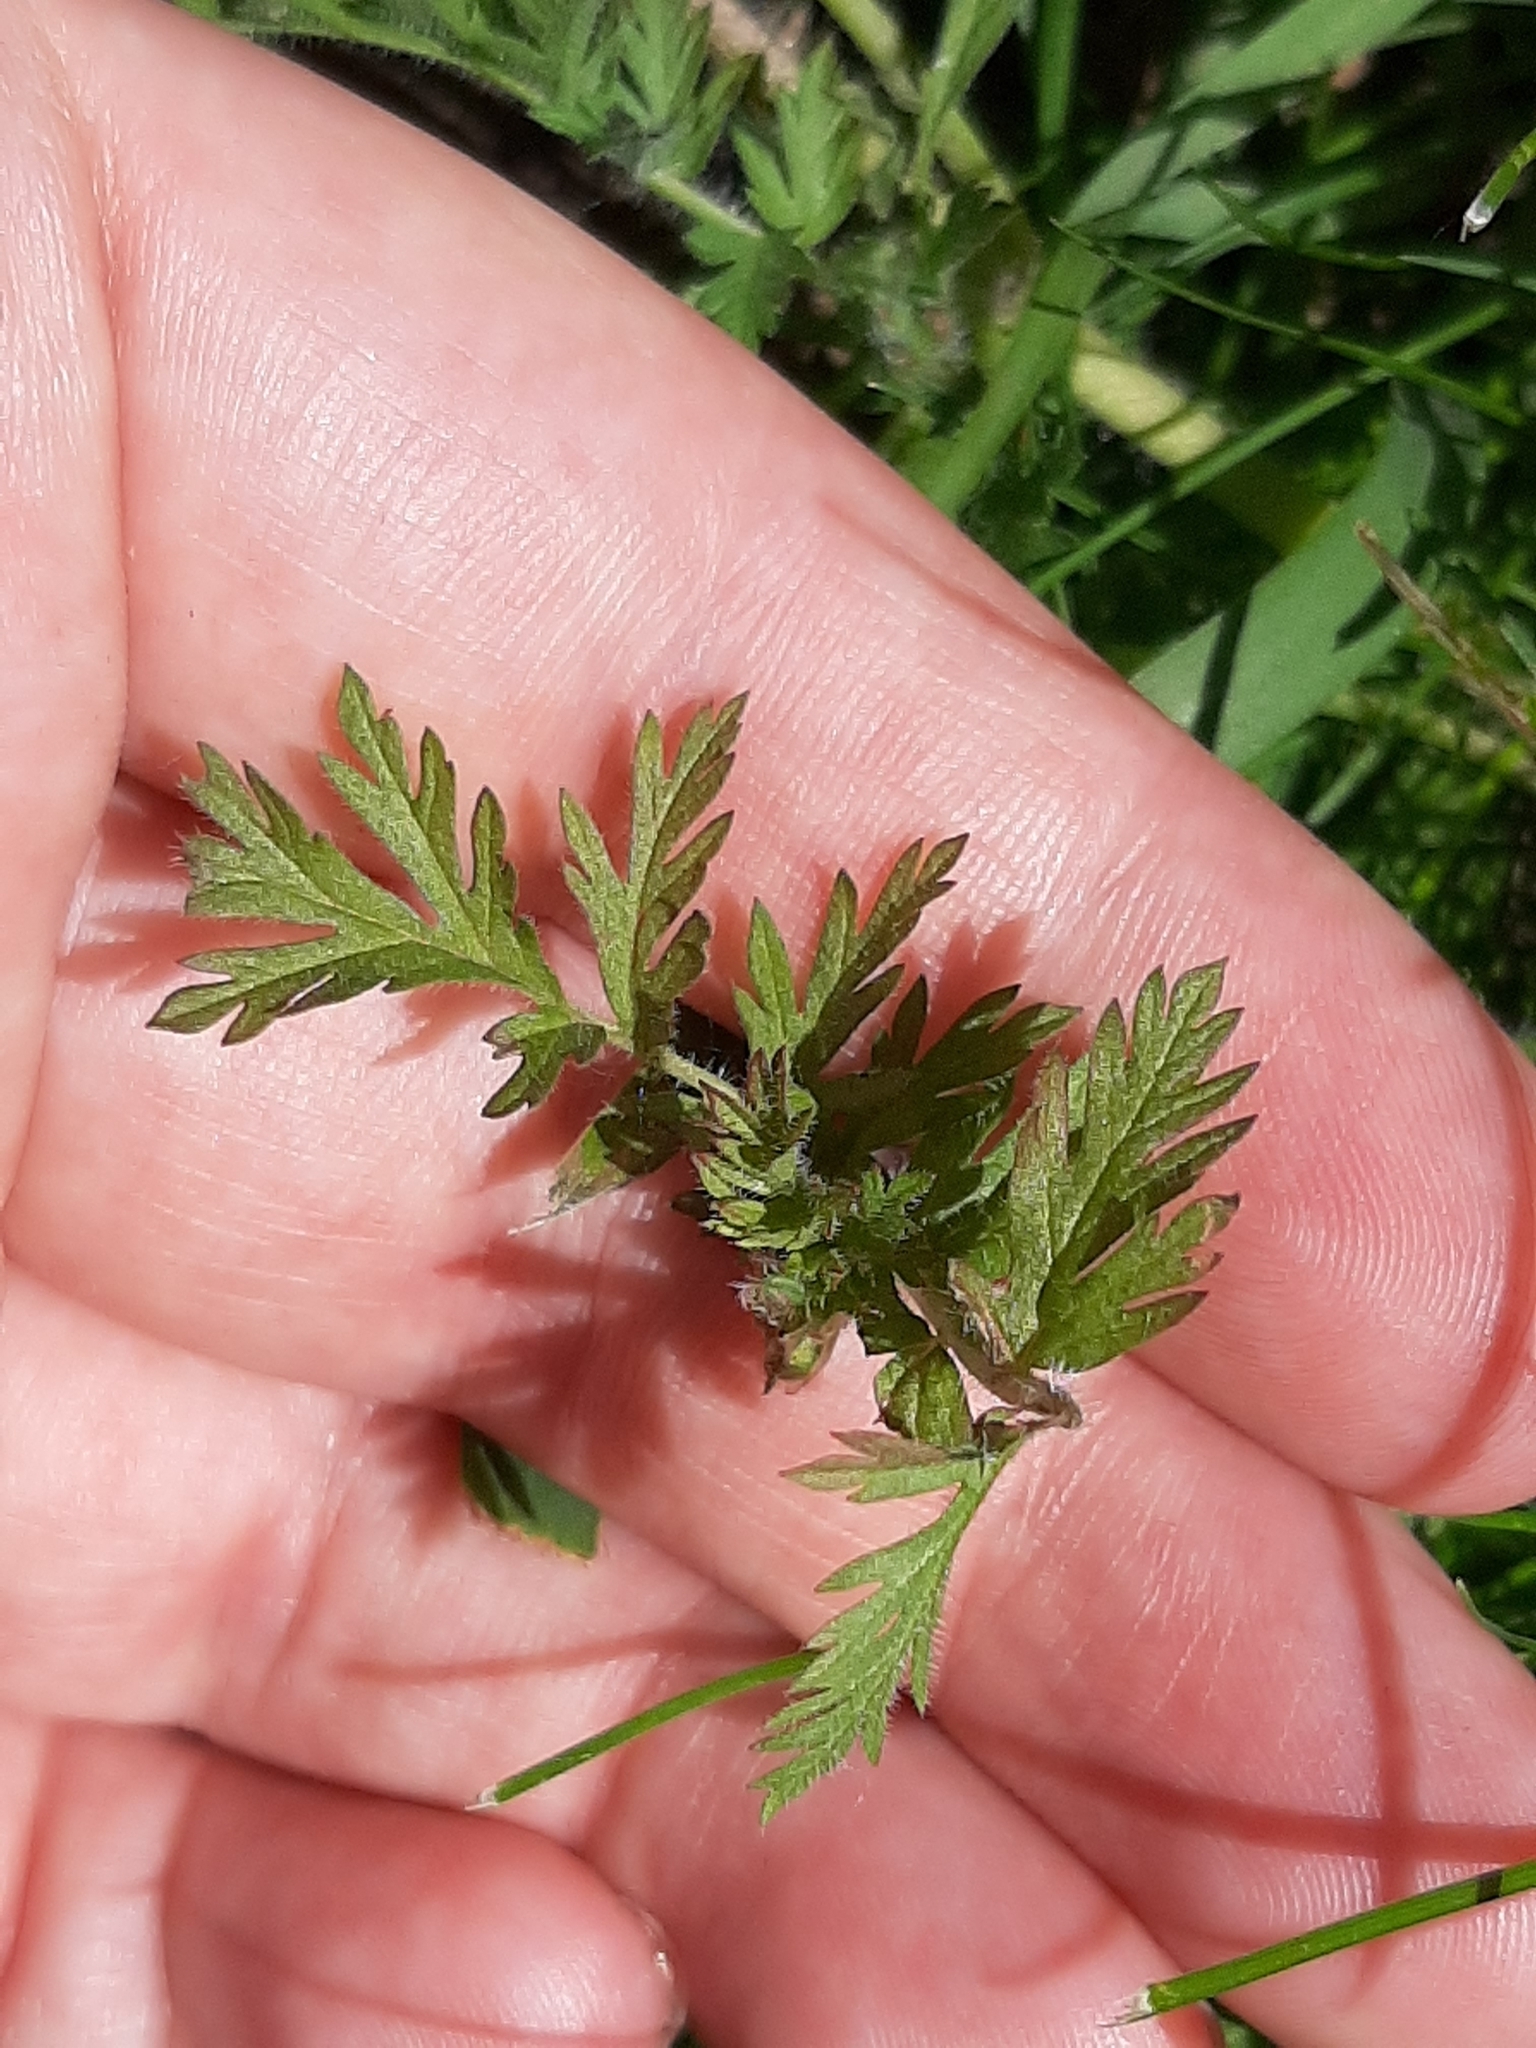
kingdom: Plantae
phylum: Tracheophyta
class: Magnoliopsida
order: Geraniales
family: Geraniaceae
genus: Erodium
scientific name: Erodium cicutarium
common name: Common stork's-bill
